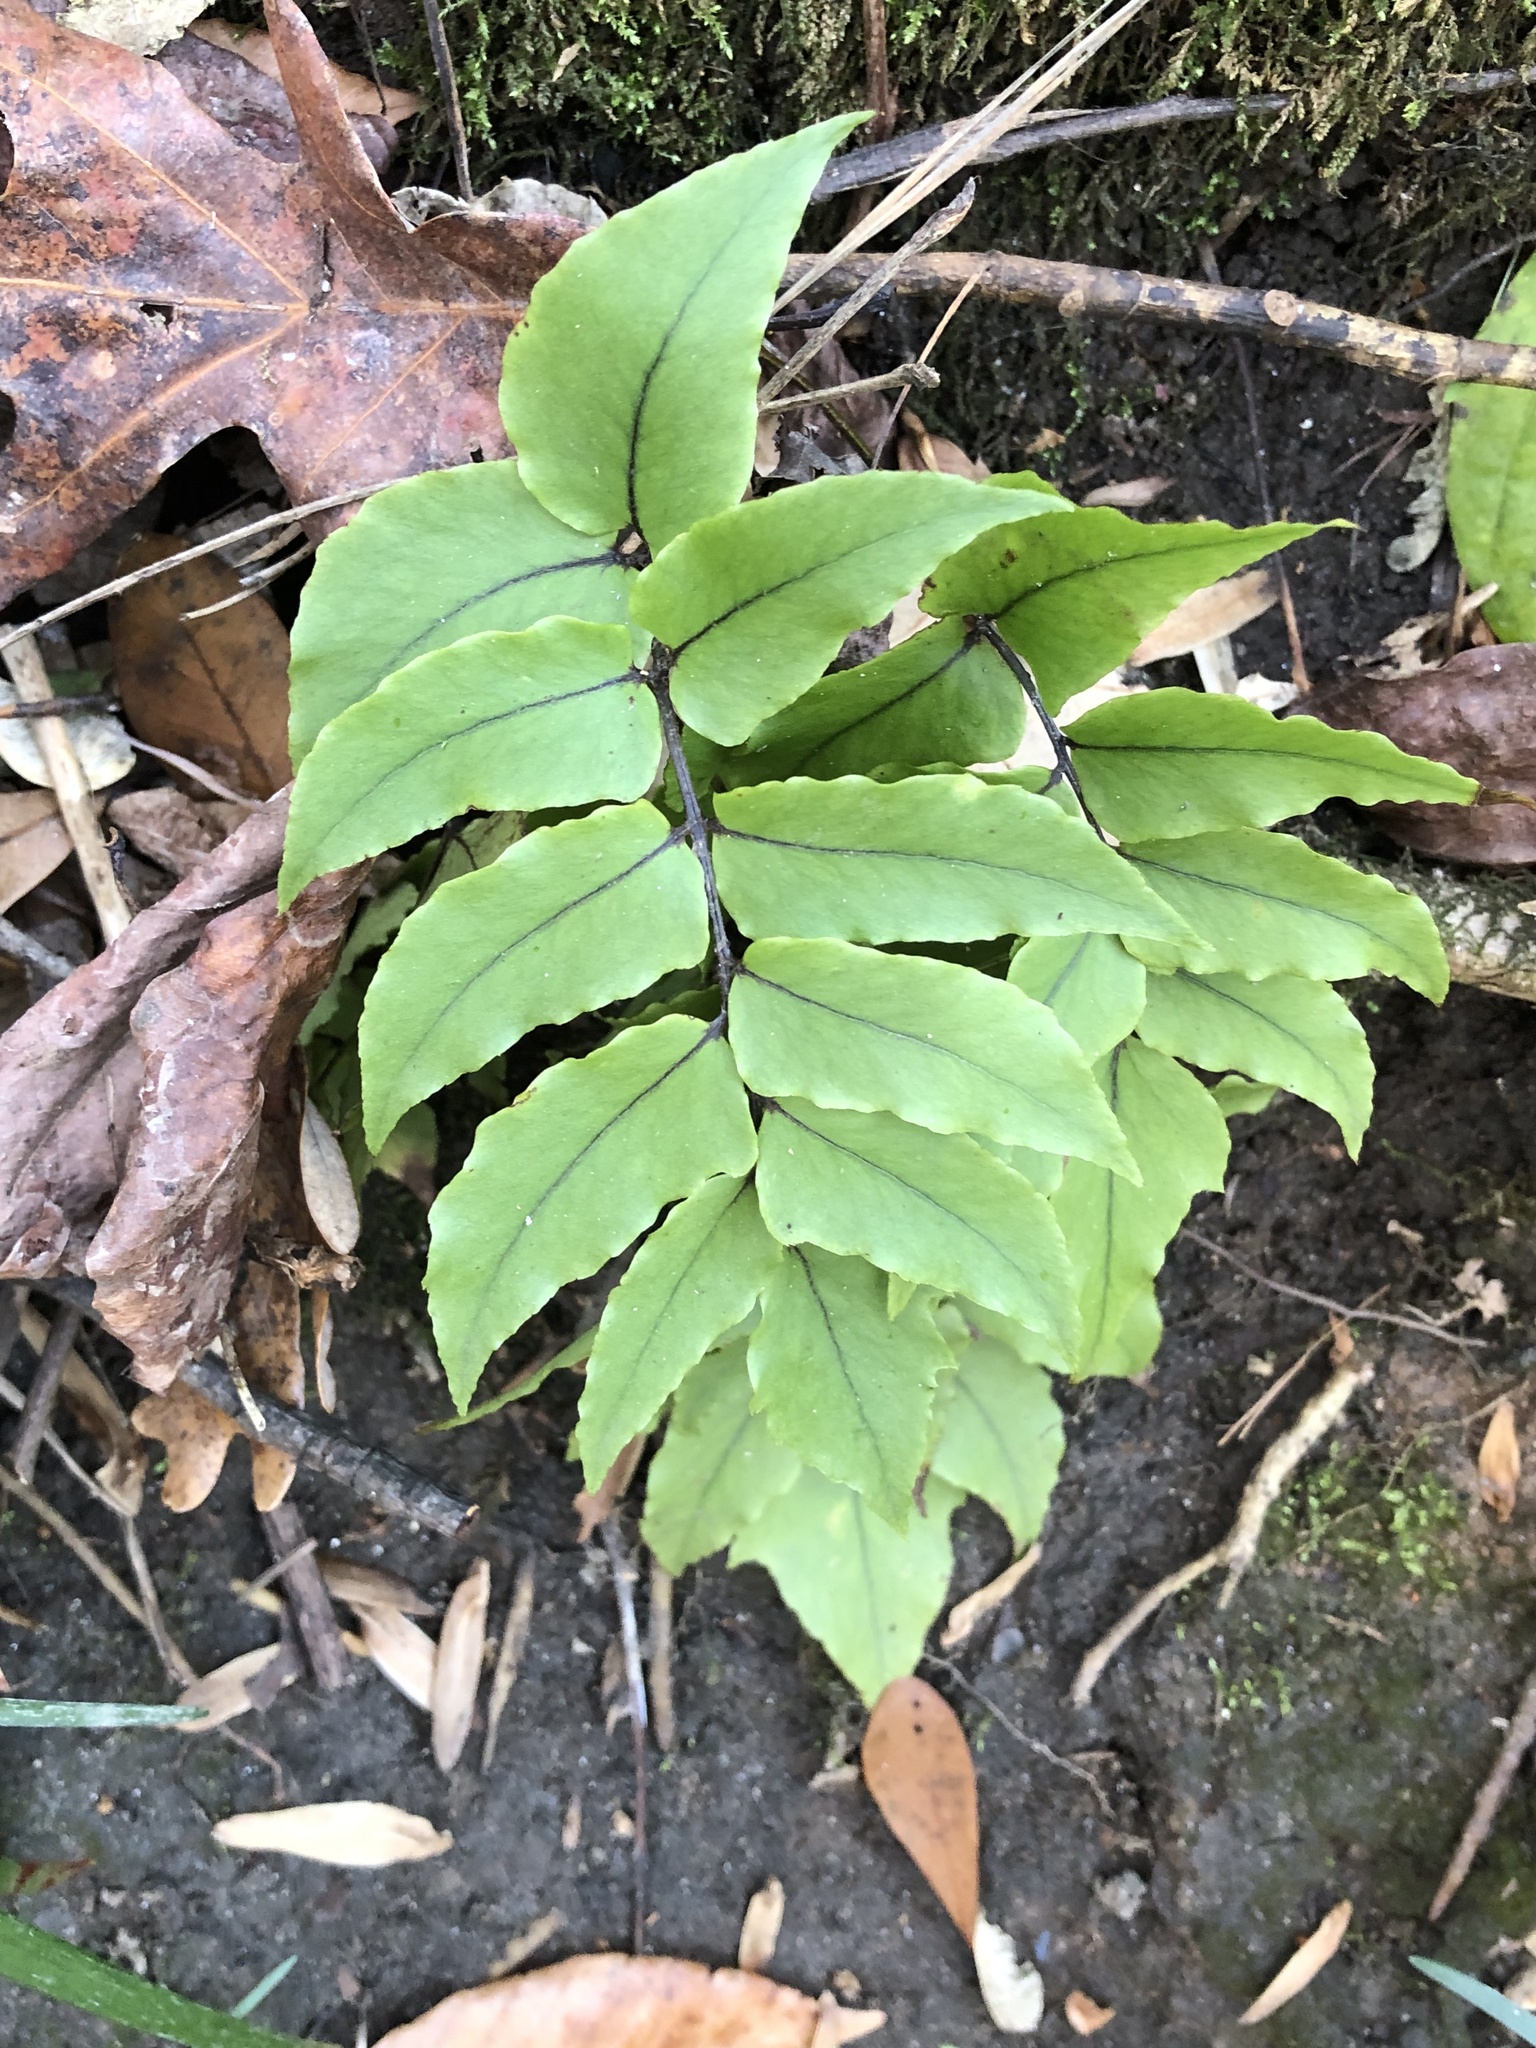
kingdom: Plantae
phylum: Tracheophyta
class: Polypodiopsida
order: Polypodiales
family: Dryopteridaceae
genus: Cyrtomium
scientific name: Cyrtomium fortunei
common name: Asian netvein hollyfern
